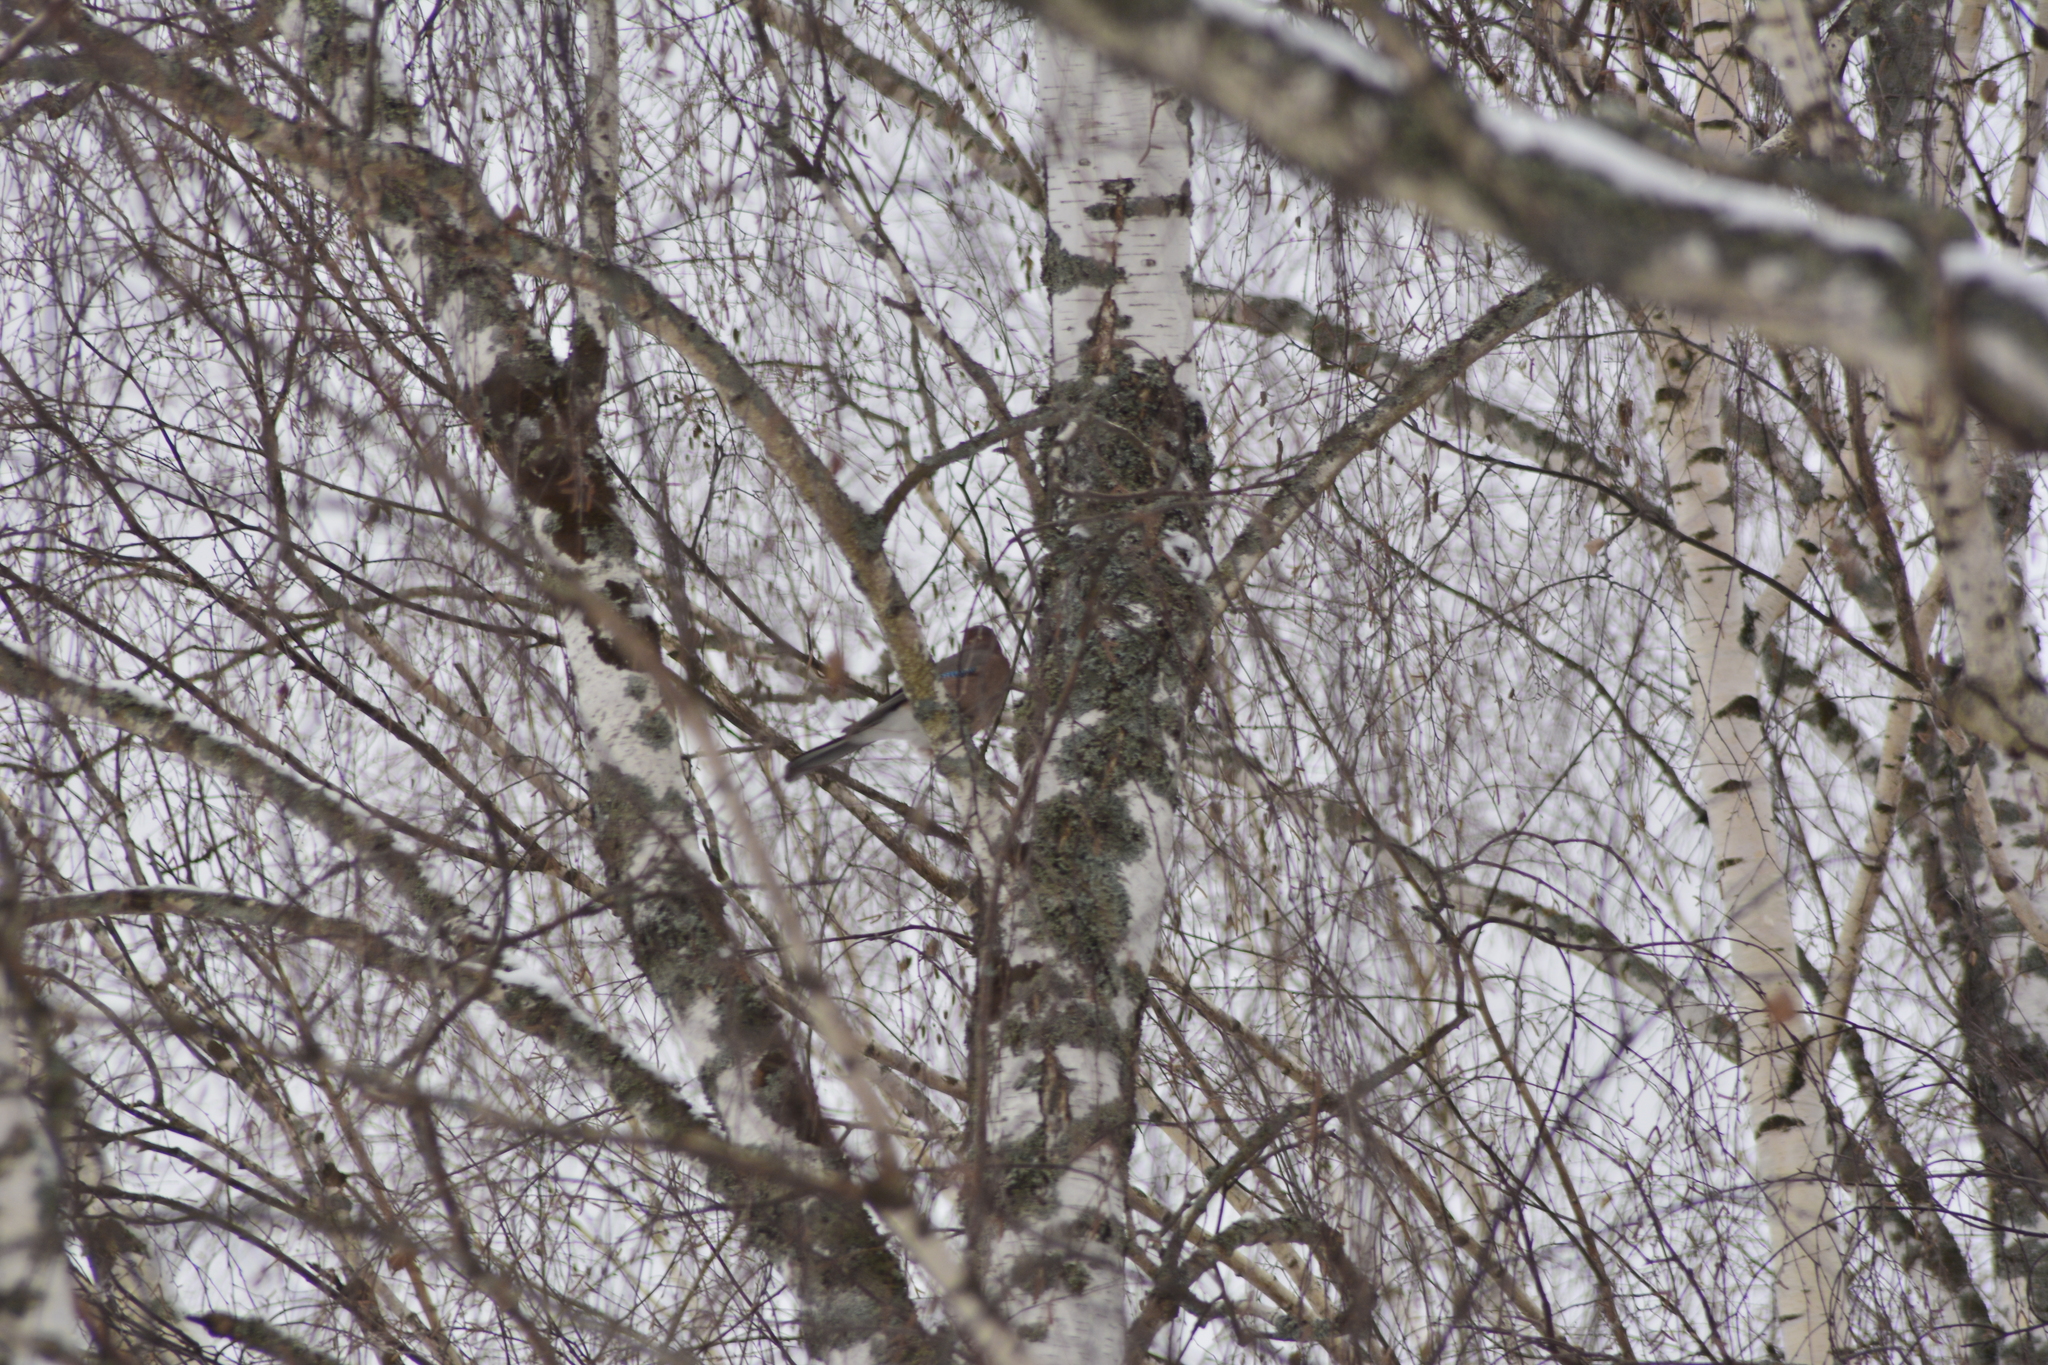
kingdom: Animalia
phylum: Chordata
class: Aves
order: Passeriformes
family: Corvidae
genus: Garrulus
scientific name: Garrulus glandarius
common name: Eurasian jay
